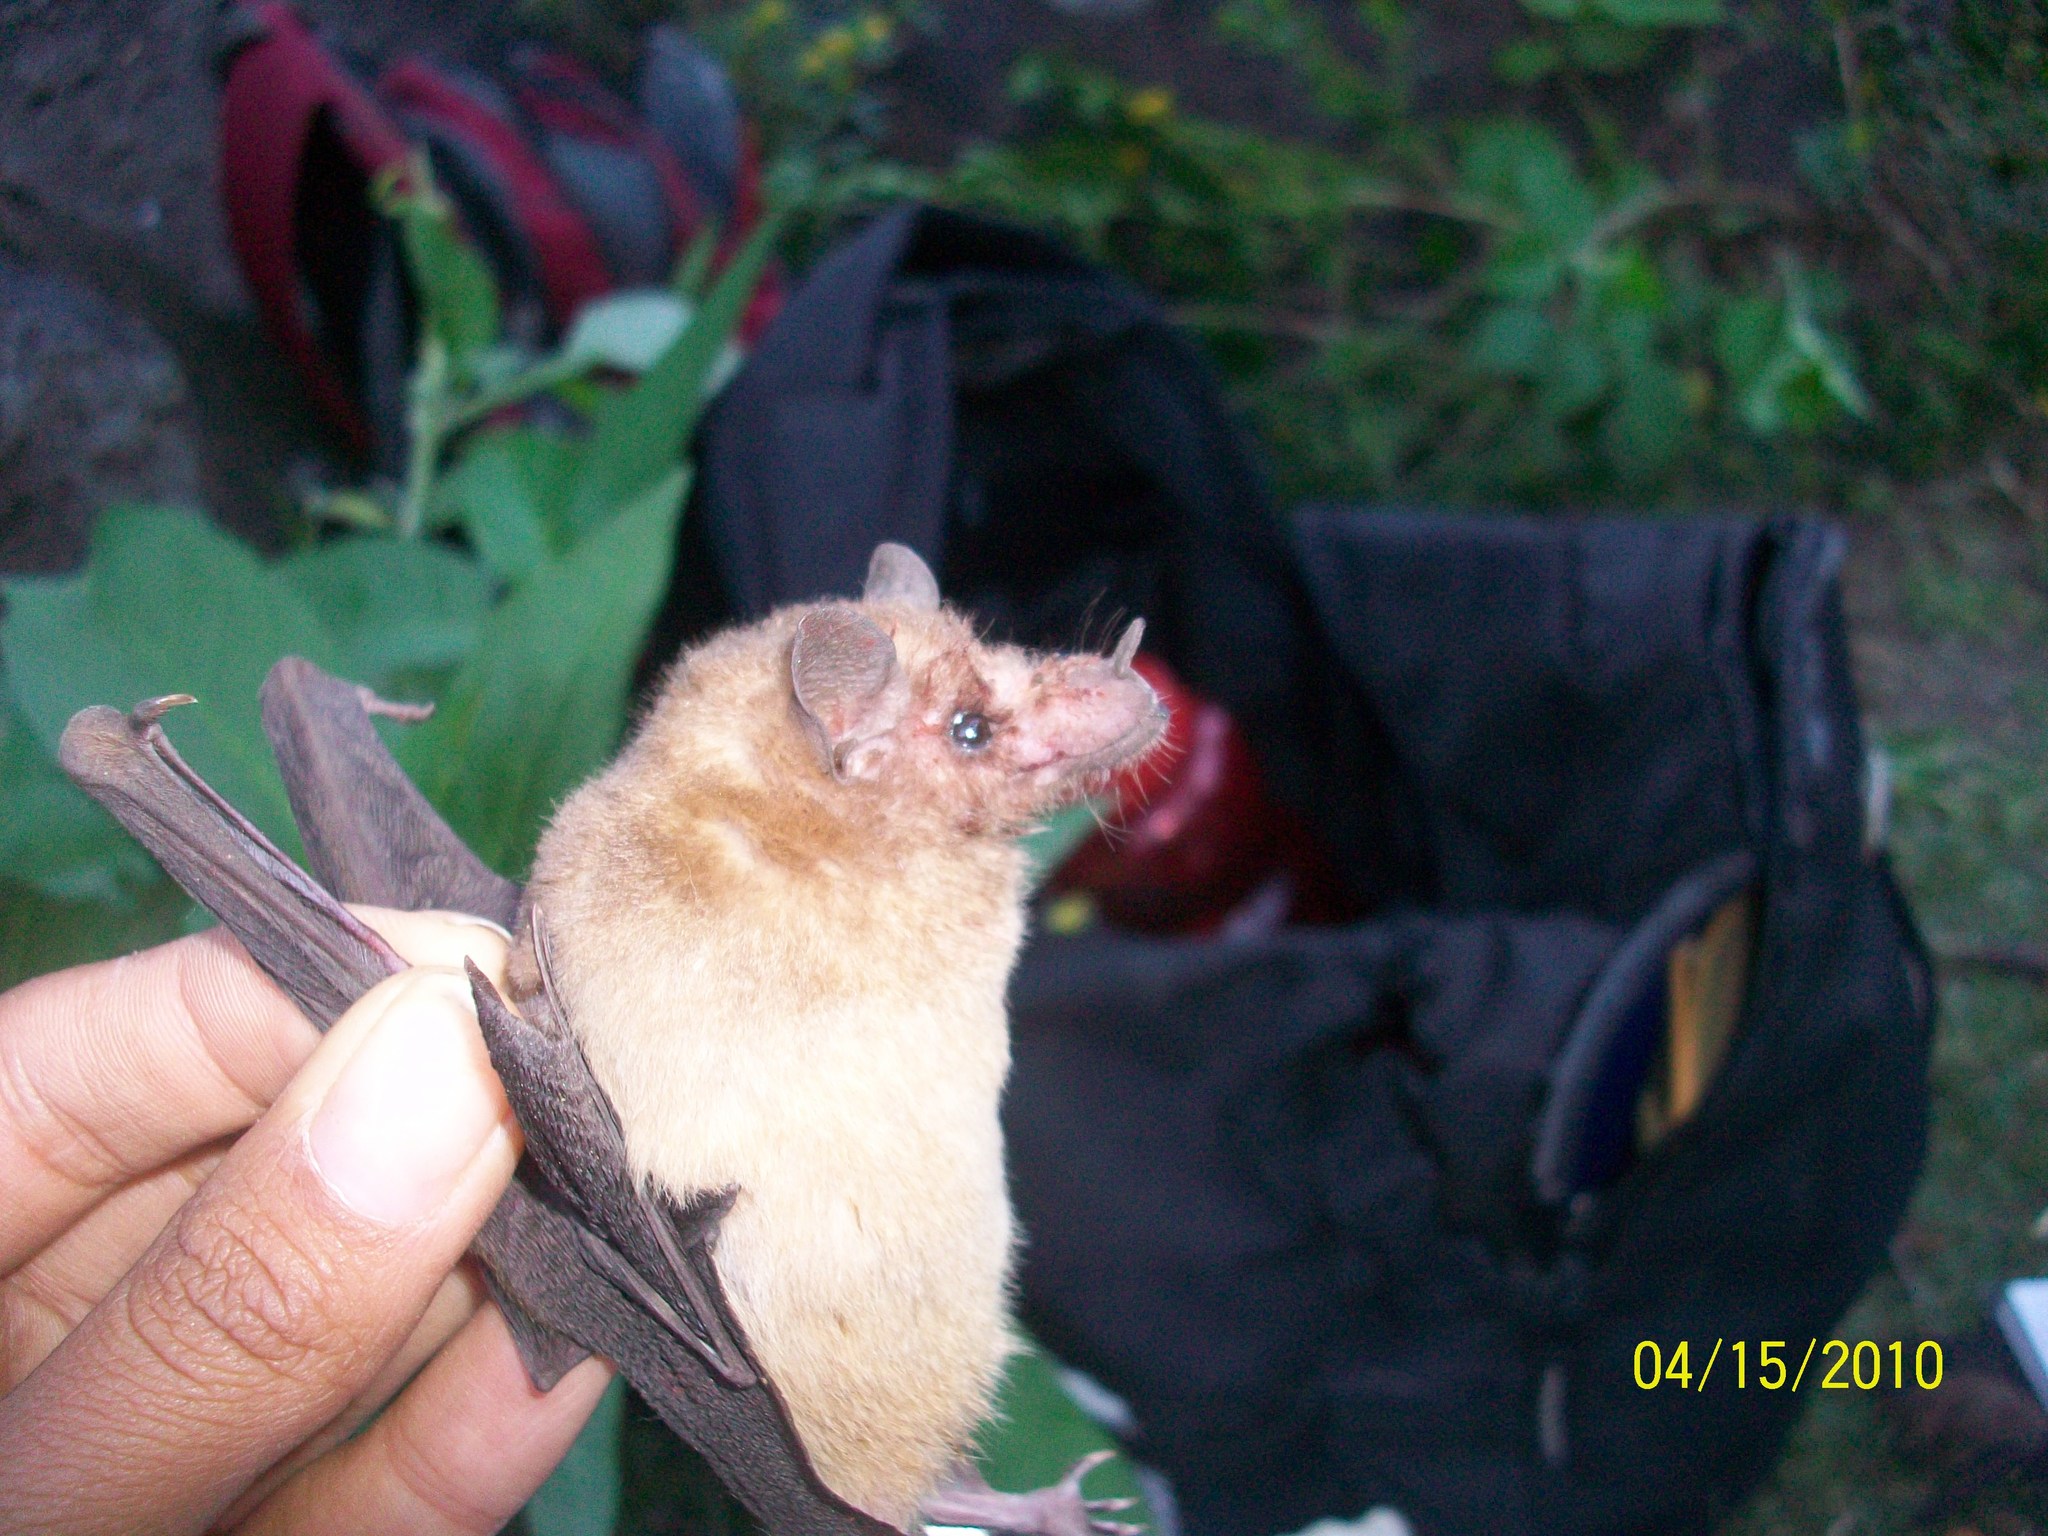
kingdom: Animalia
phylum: Chordata
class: Mammalia
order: Chiroptera
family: Phyllostomidae
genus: Leptonycteris
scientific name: Leptonycteris yerbabuenae
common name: Lesser long-nosed bat
